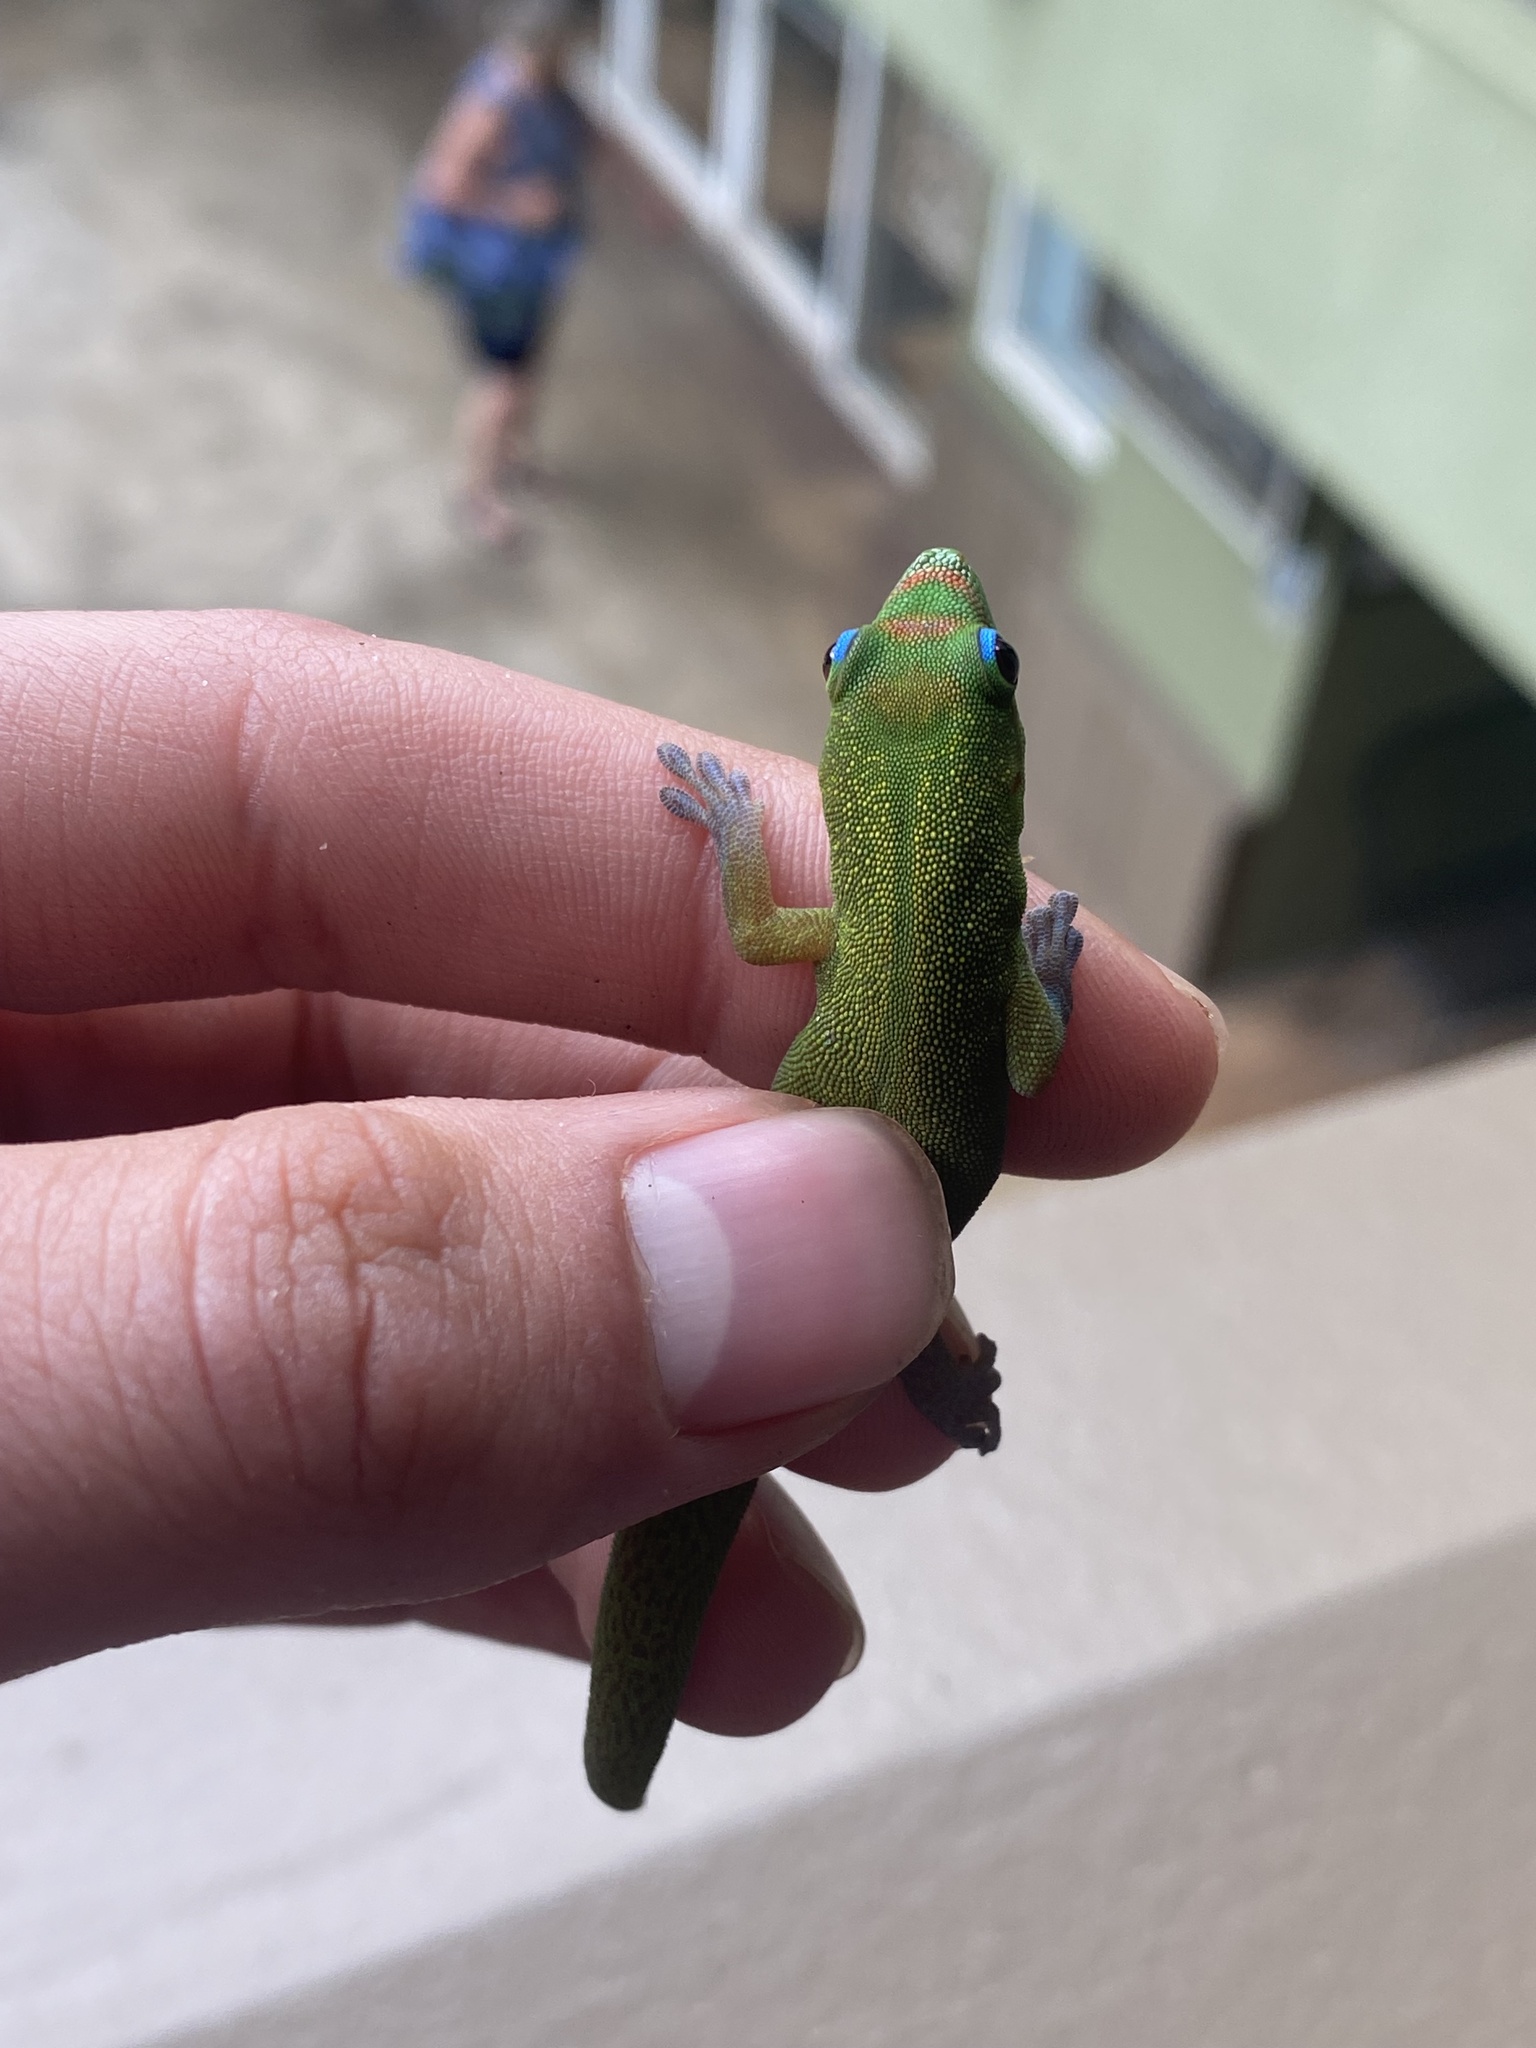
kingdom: Animalia
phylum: Chordata
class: Squamata
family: Gekkonidae
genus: Phelsuma
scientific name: Phelsuma laticauda
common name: Gold dust day gecko
